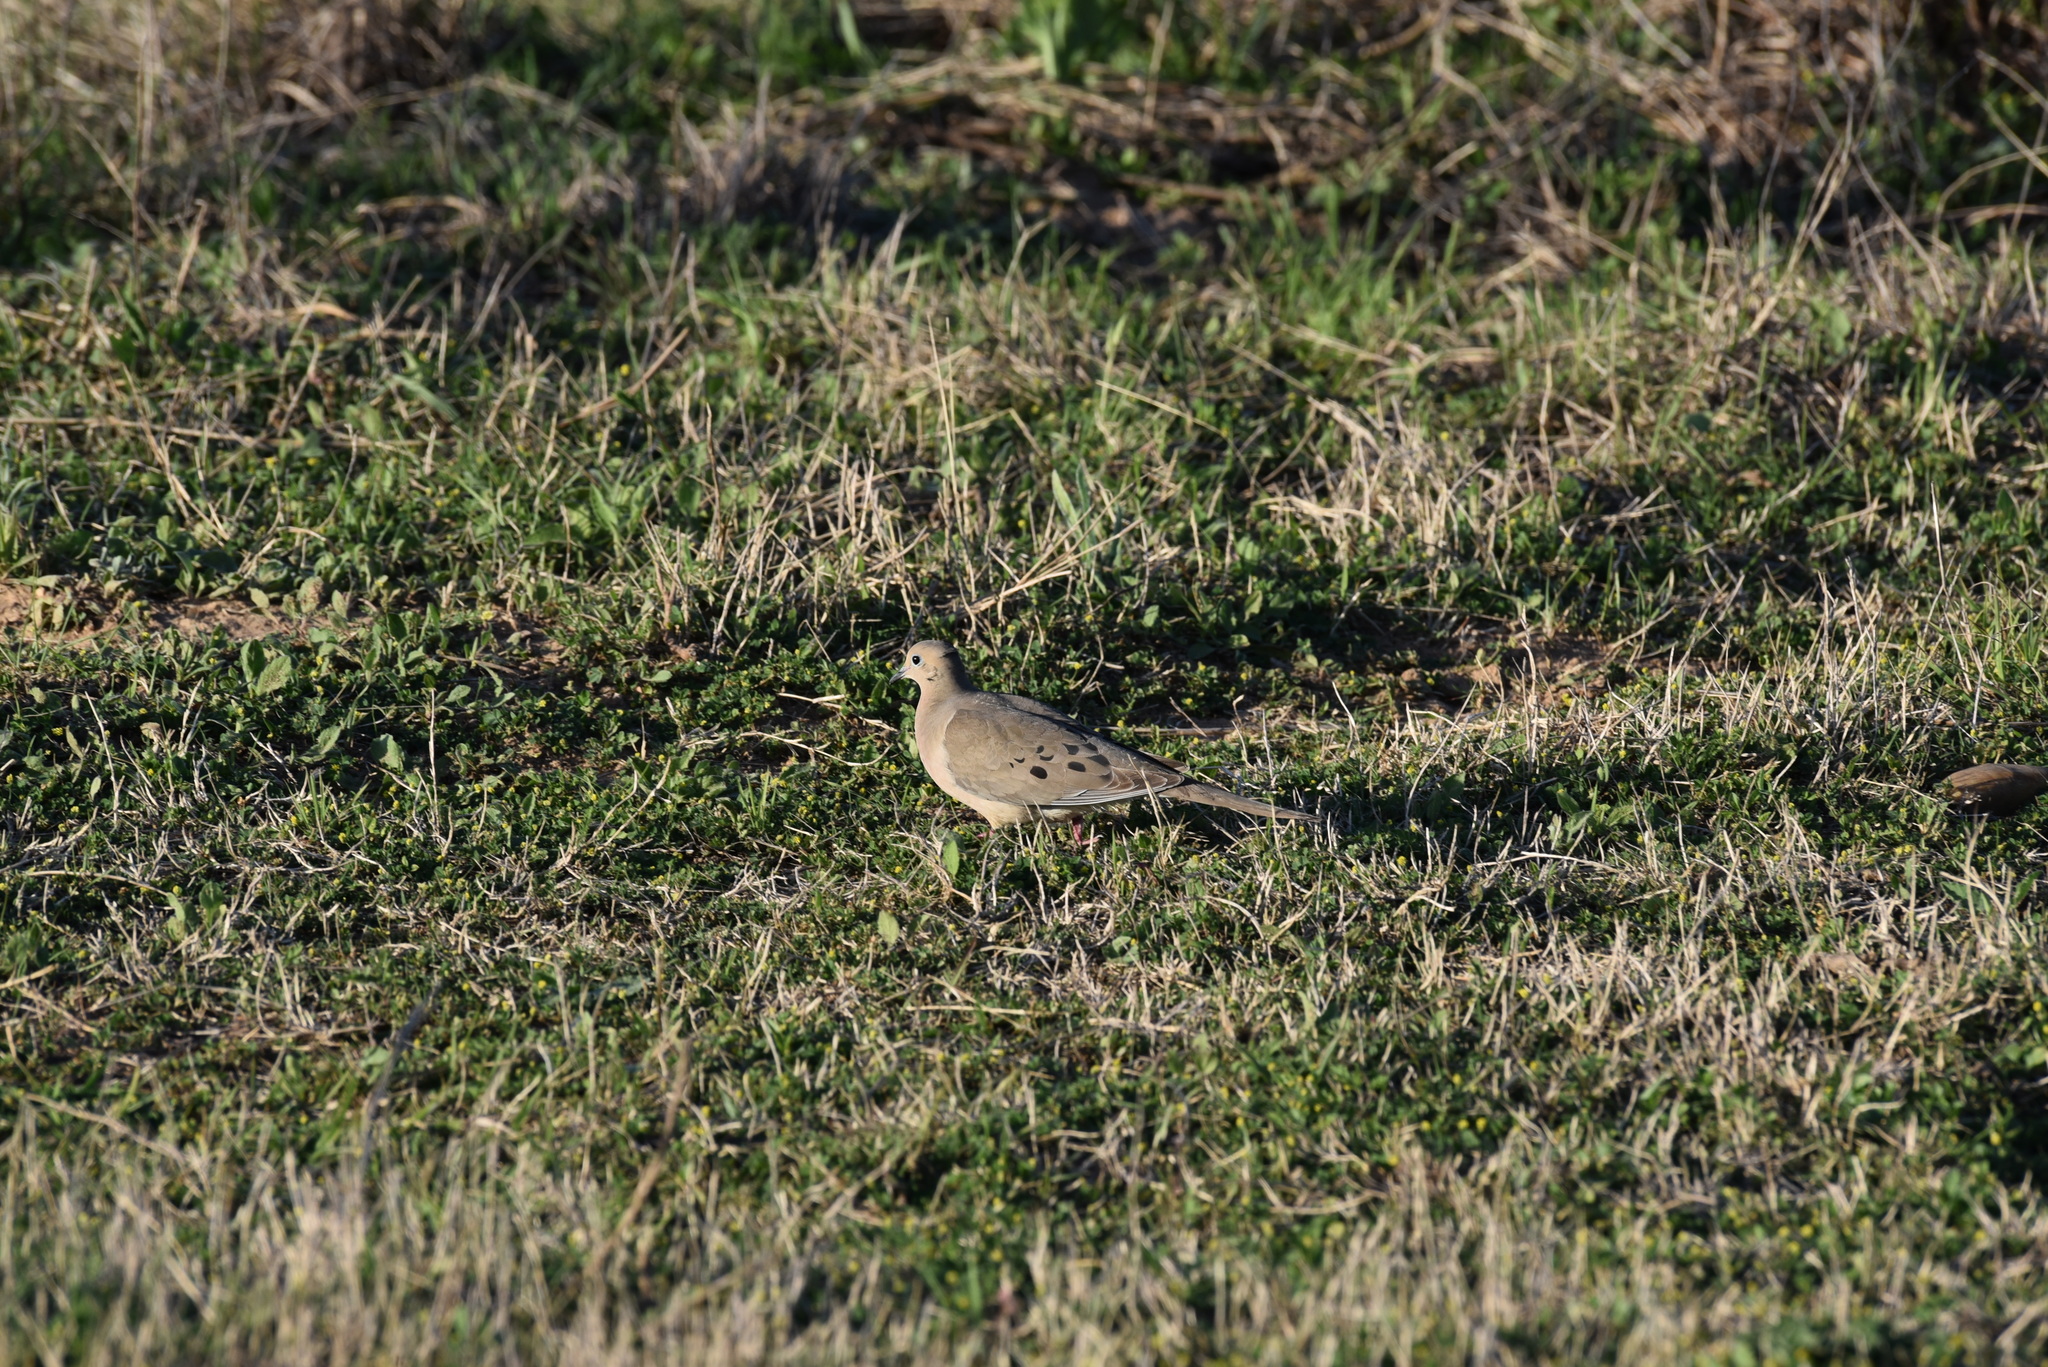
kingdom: Animalia
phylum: Chordata
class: Aves
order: Columbiformes
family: Columbidae
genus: Zenaida
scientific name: Zenaida macroura
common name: Mourning dove
